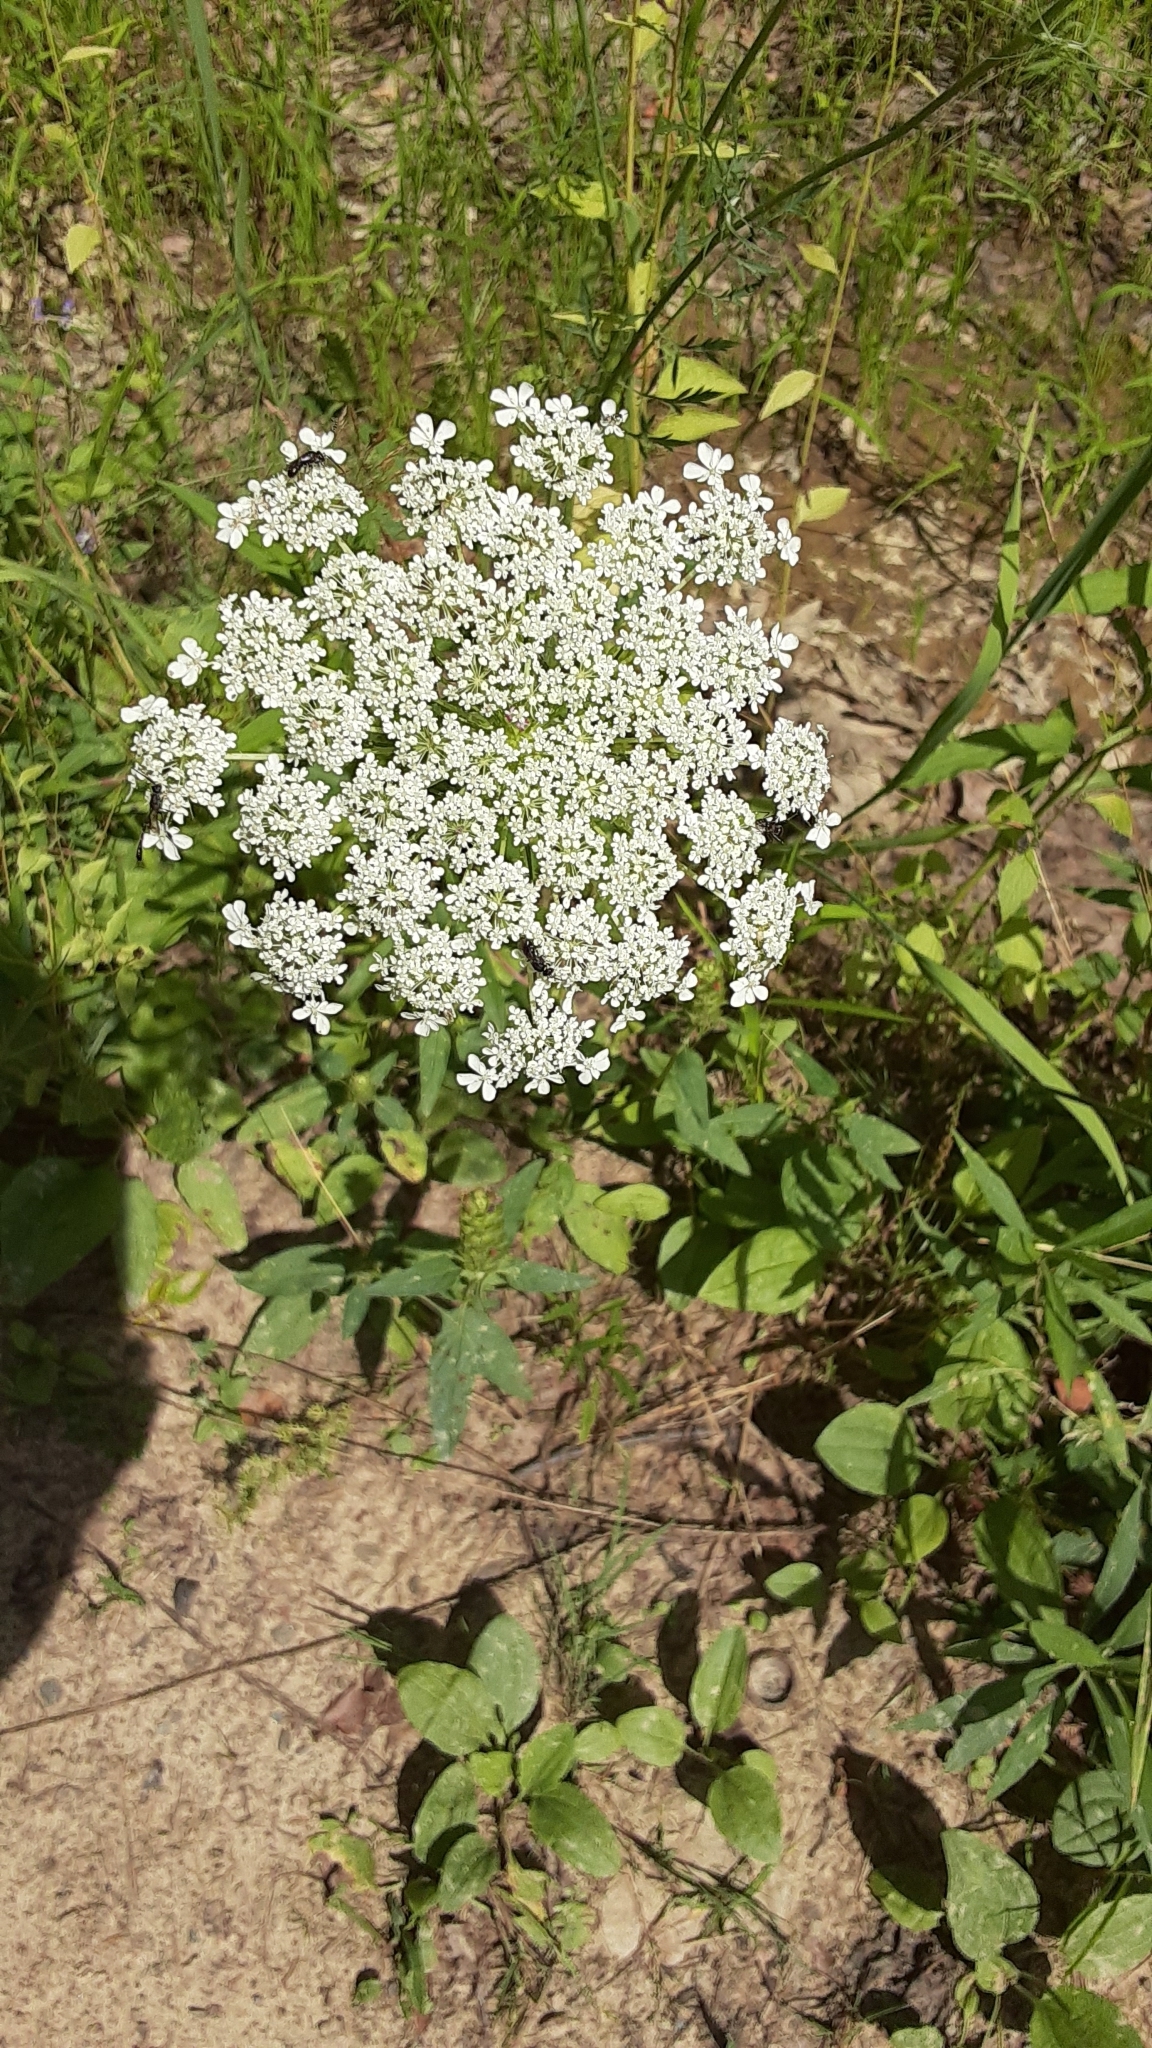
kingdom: Plantae
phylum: Tracheophyta
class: Magnoliopsida
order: Apiales
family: Apiaceae
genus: Daucus
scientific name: Daucus carota
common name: Wild carrot
